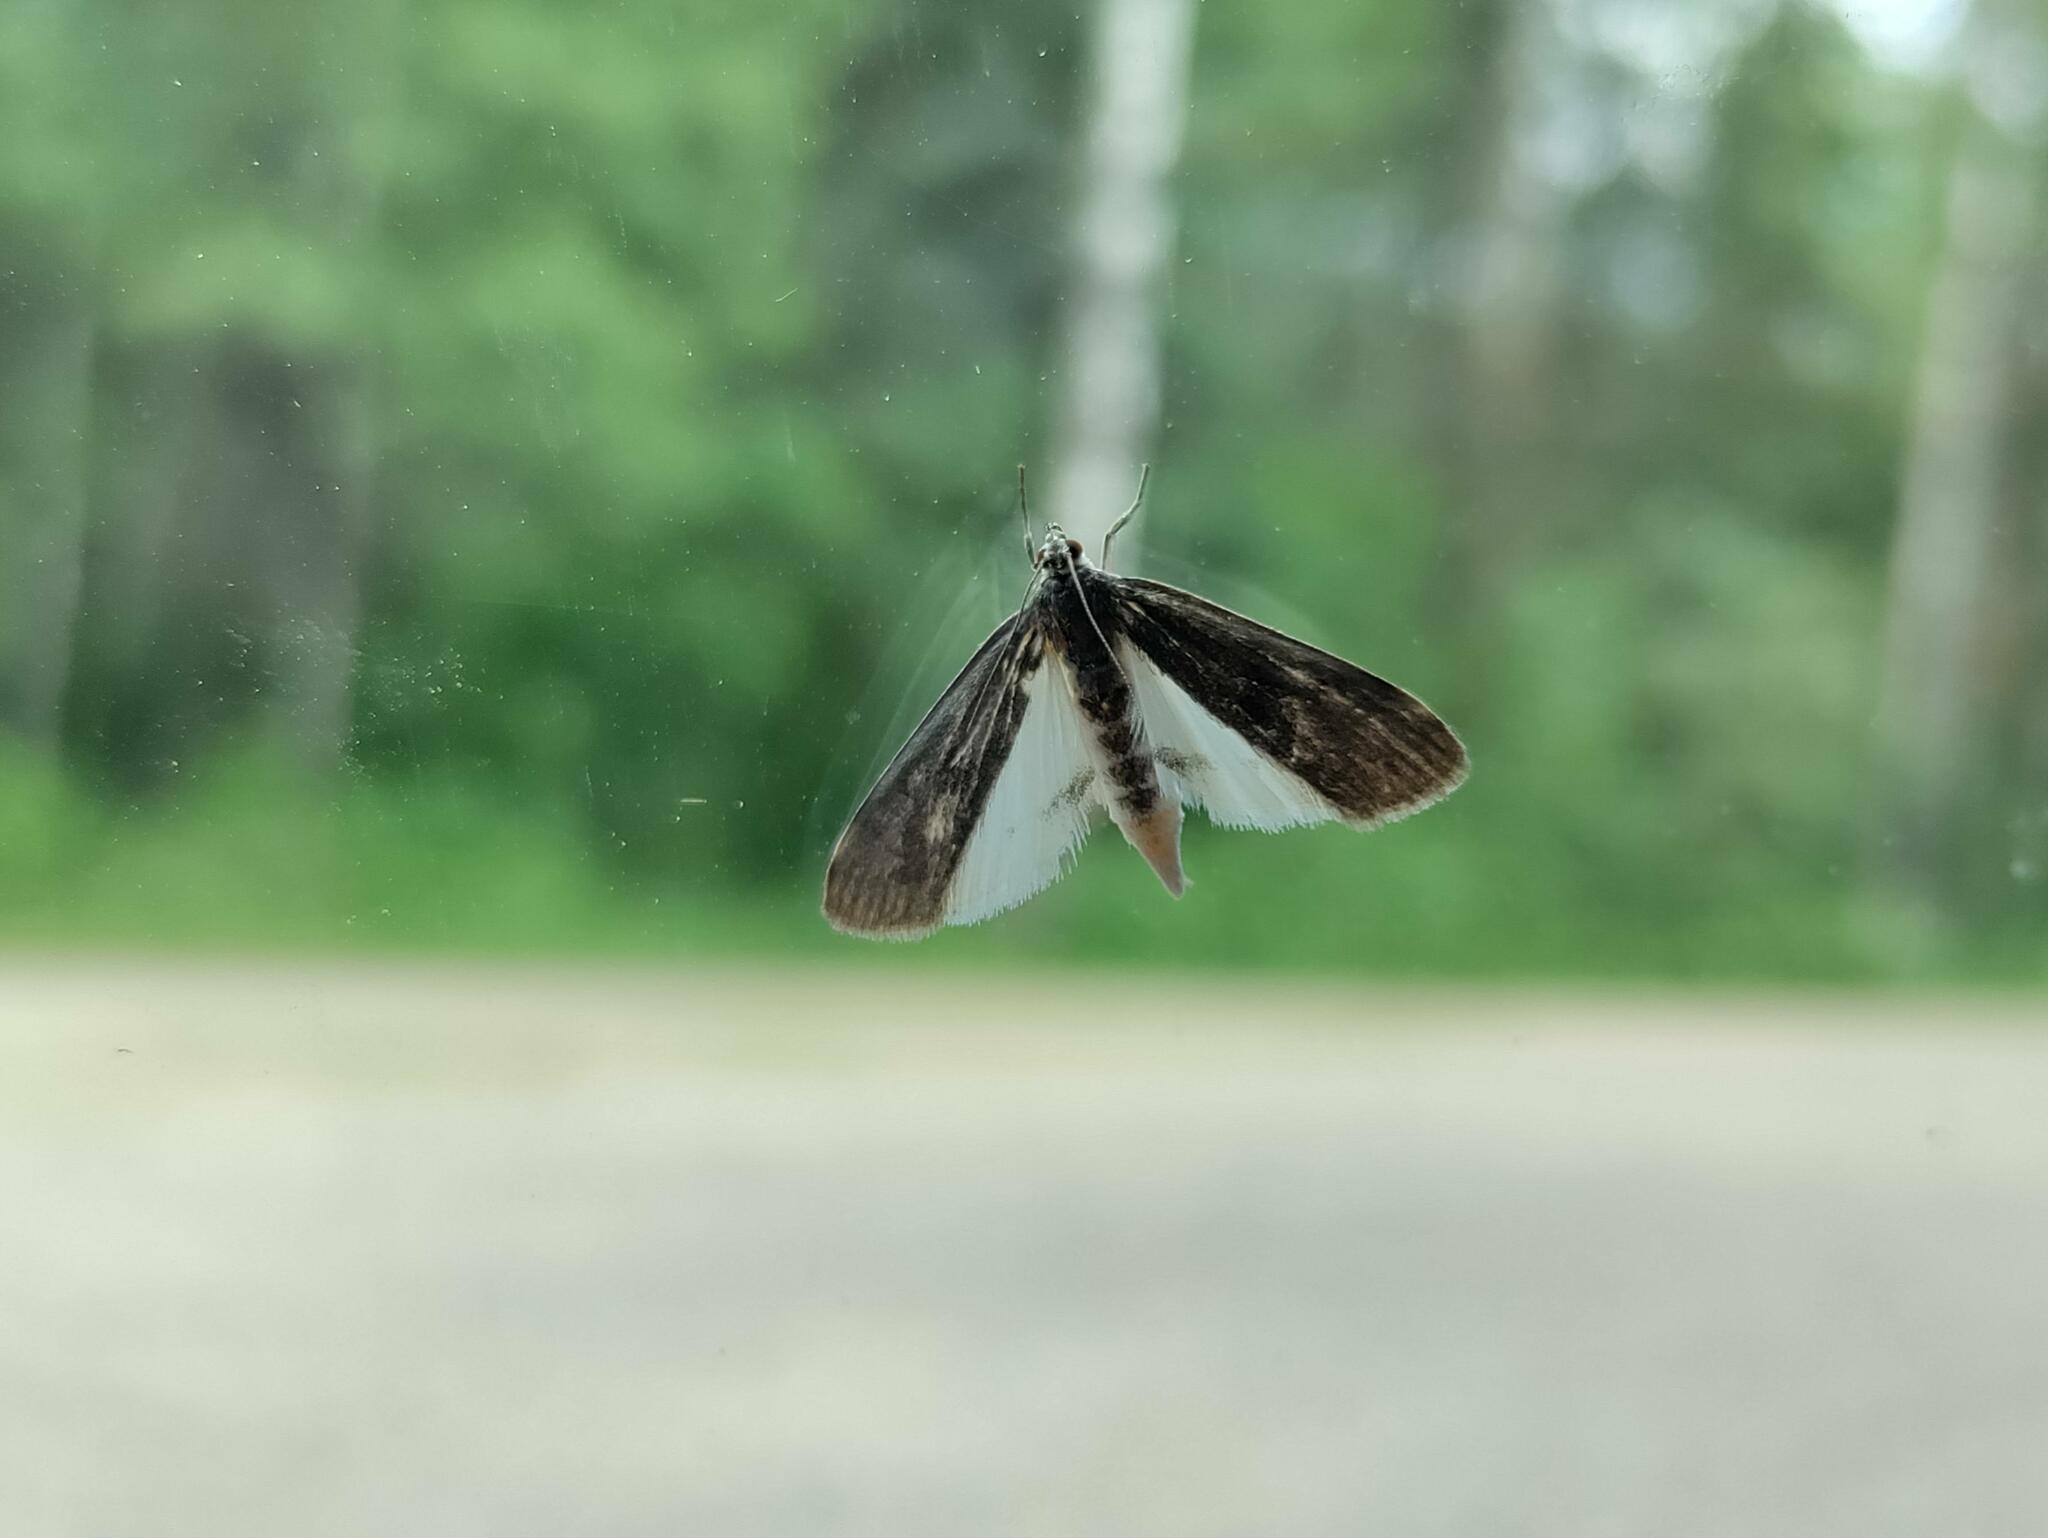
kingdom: Animalia
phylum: Arthropoda
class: Insecta
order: Lepidoptera
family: Crambidae
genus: Parapoynx
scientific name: Parapoynx maculalis
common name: Polymorphic pondweed moth
